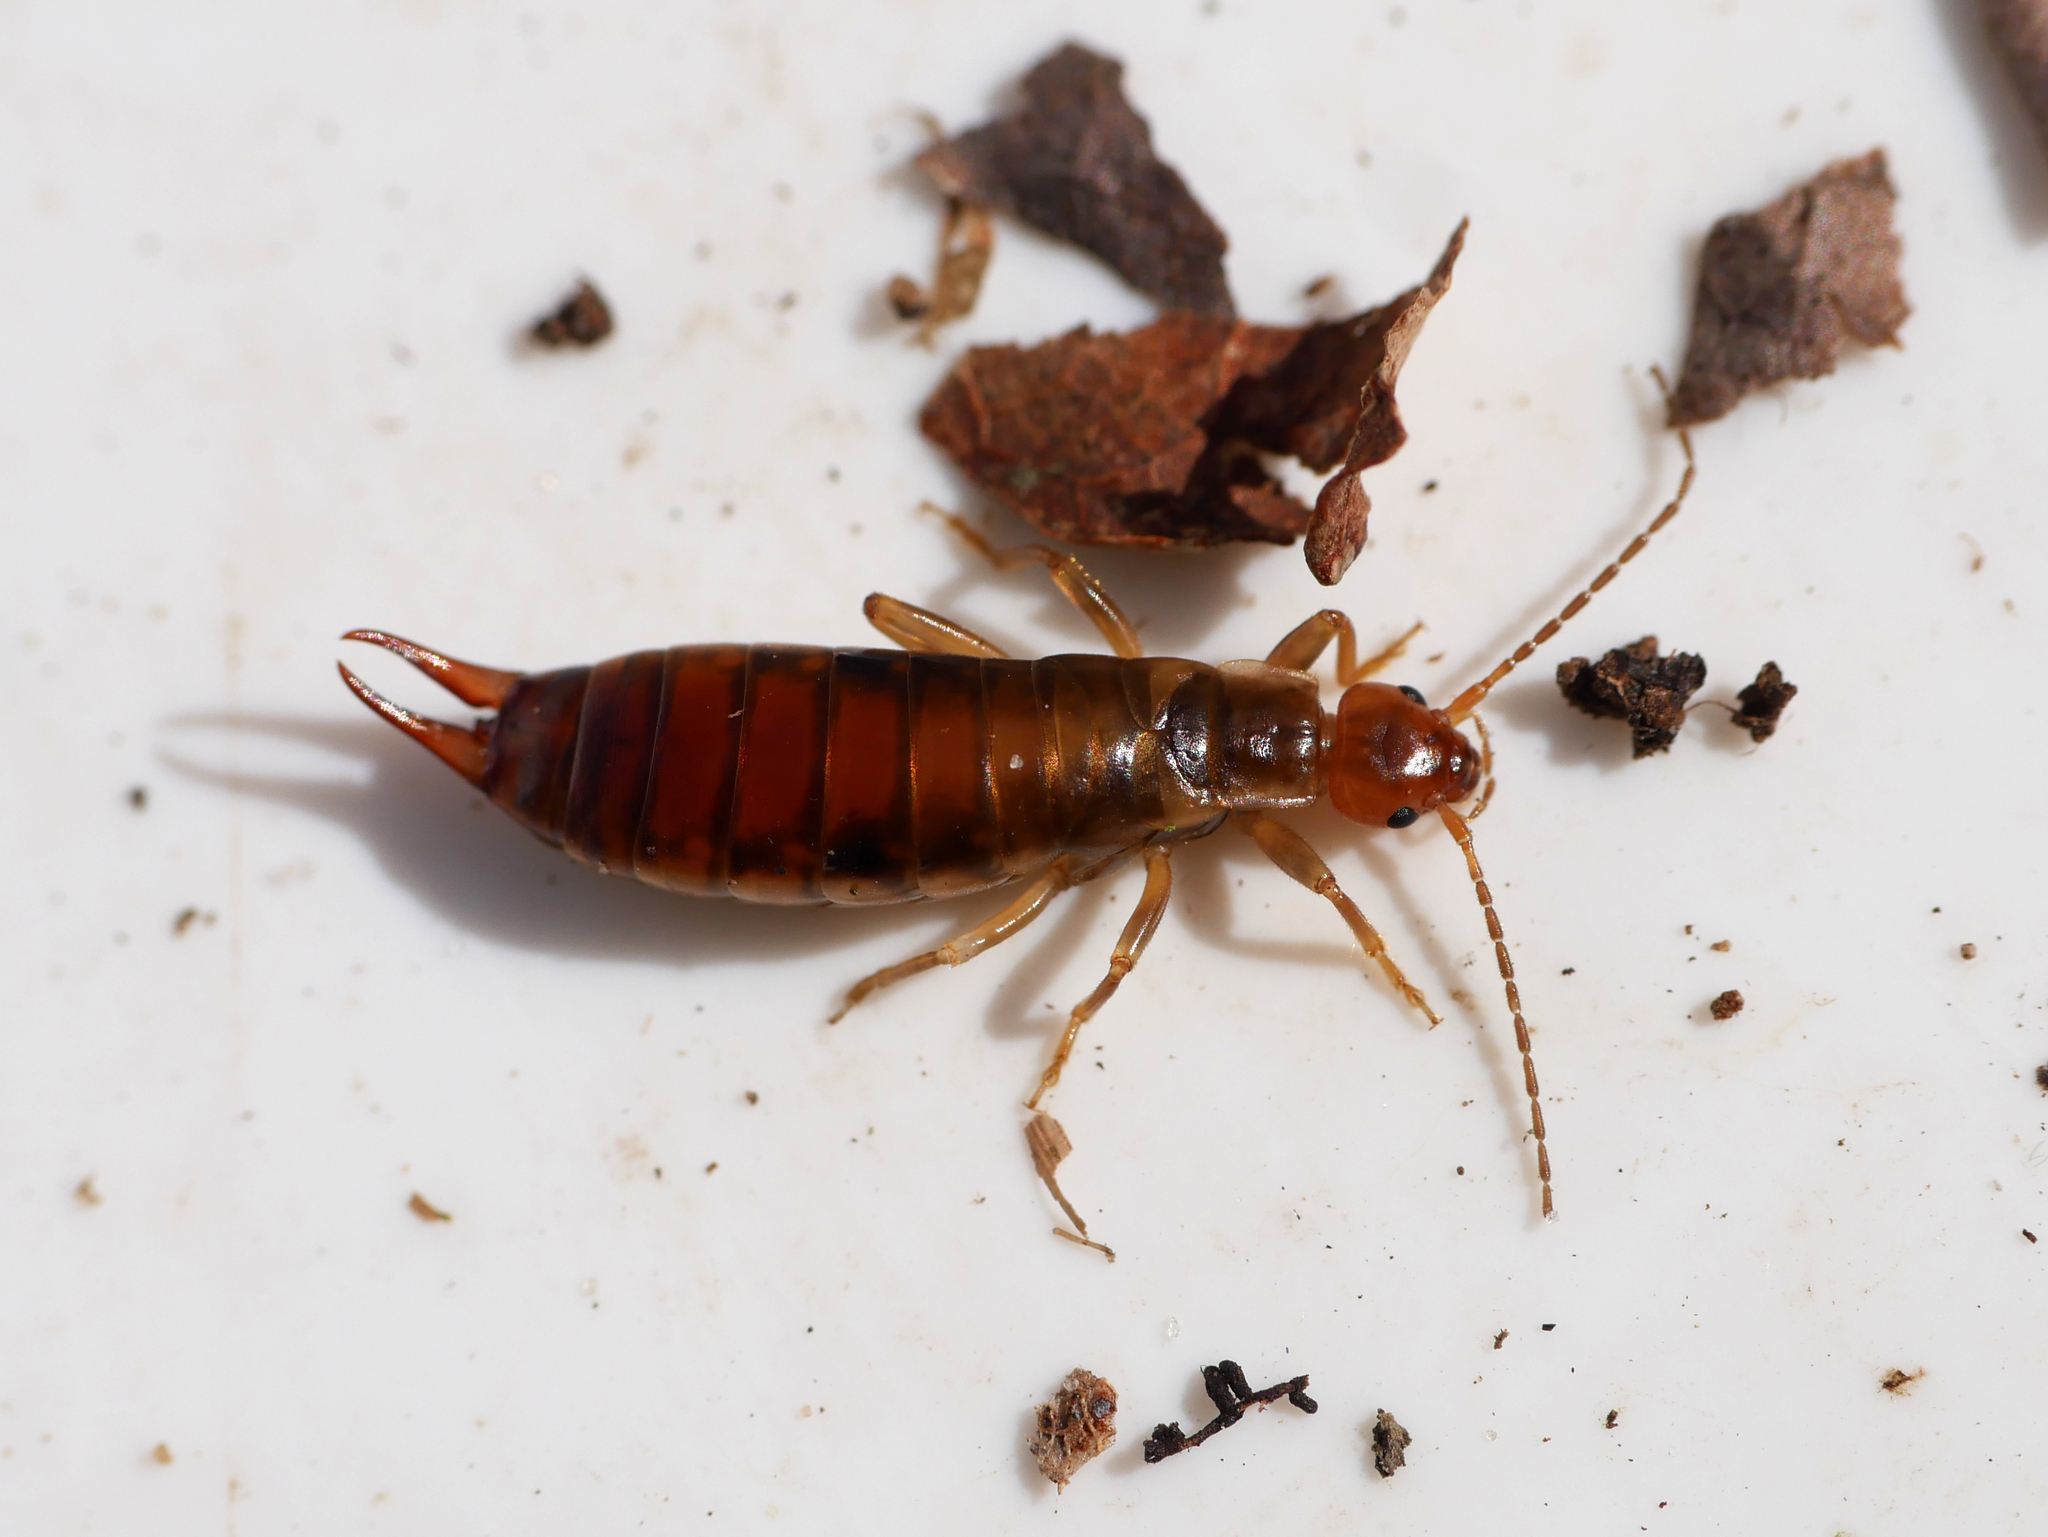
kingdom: Animalia
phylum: Arthropoda
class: Insecta
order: Dermaptera
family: Forficulidae
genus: Chelidurella
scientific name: Chelidurella acanthopygia
